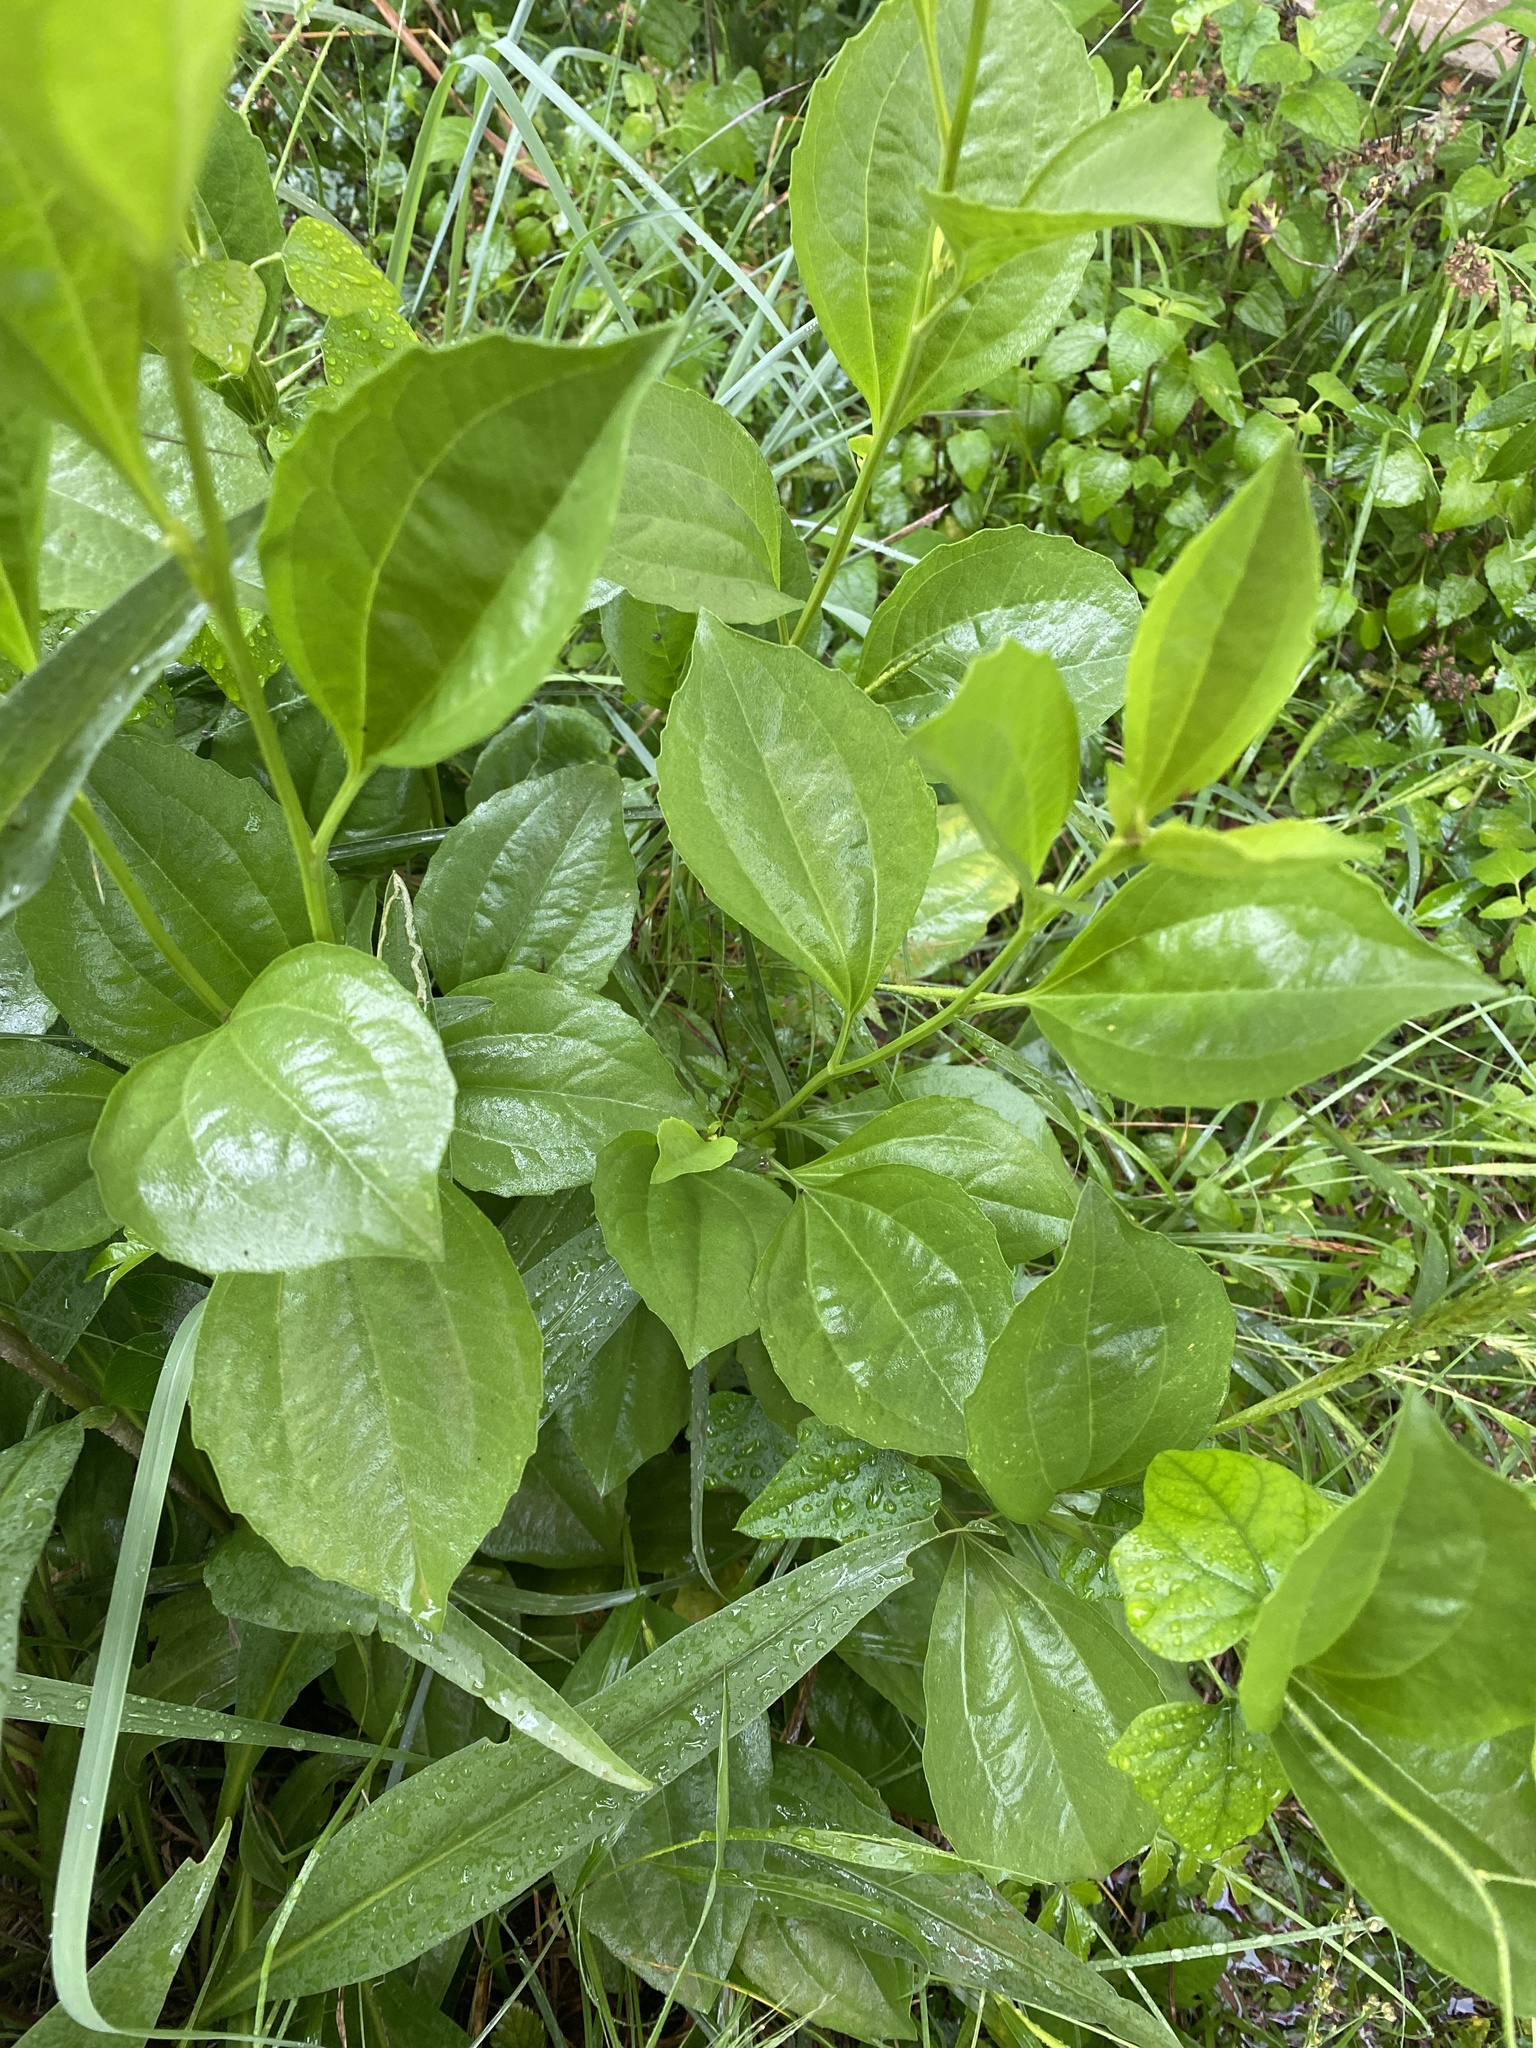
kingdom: Plantae
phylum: Tracheophyta
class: Magnoliopsida
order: Asterales
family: Asteraceae
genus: Rudbeckia
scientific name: Rudbeckia grandiflora
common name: Large-flowered coneflower
